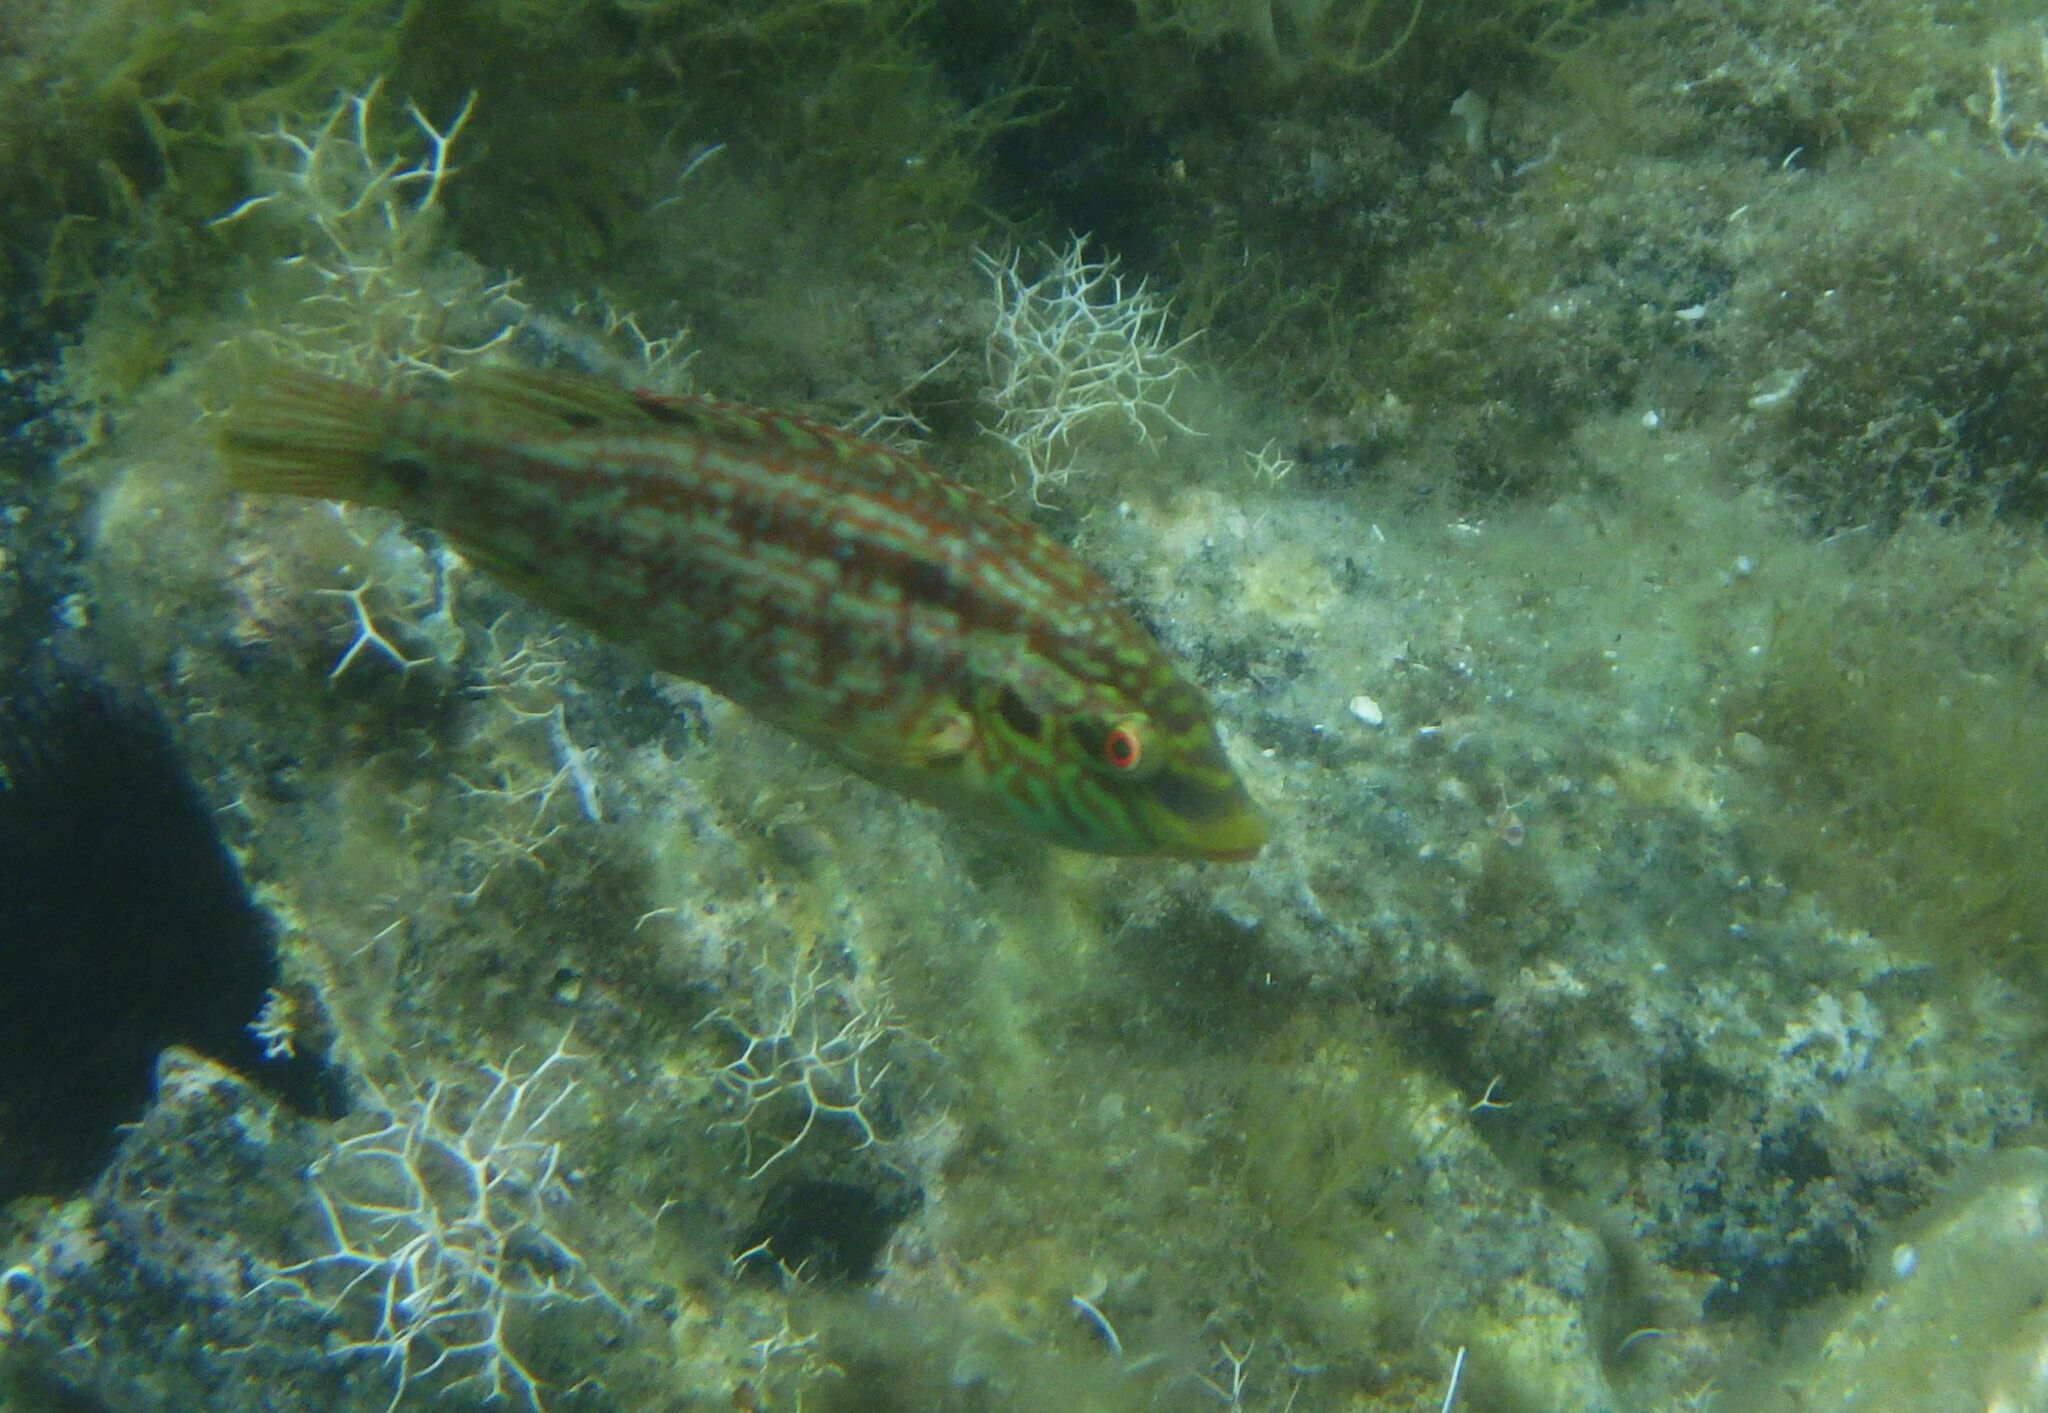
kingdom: Animalia
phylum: Chordata
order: Perciformes
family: Labridae
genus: Symphodus
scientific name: Symphodus roissali
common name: Five-spotted wrasse
